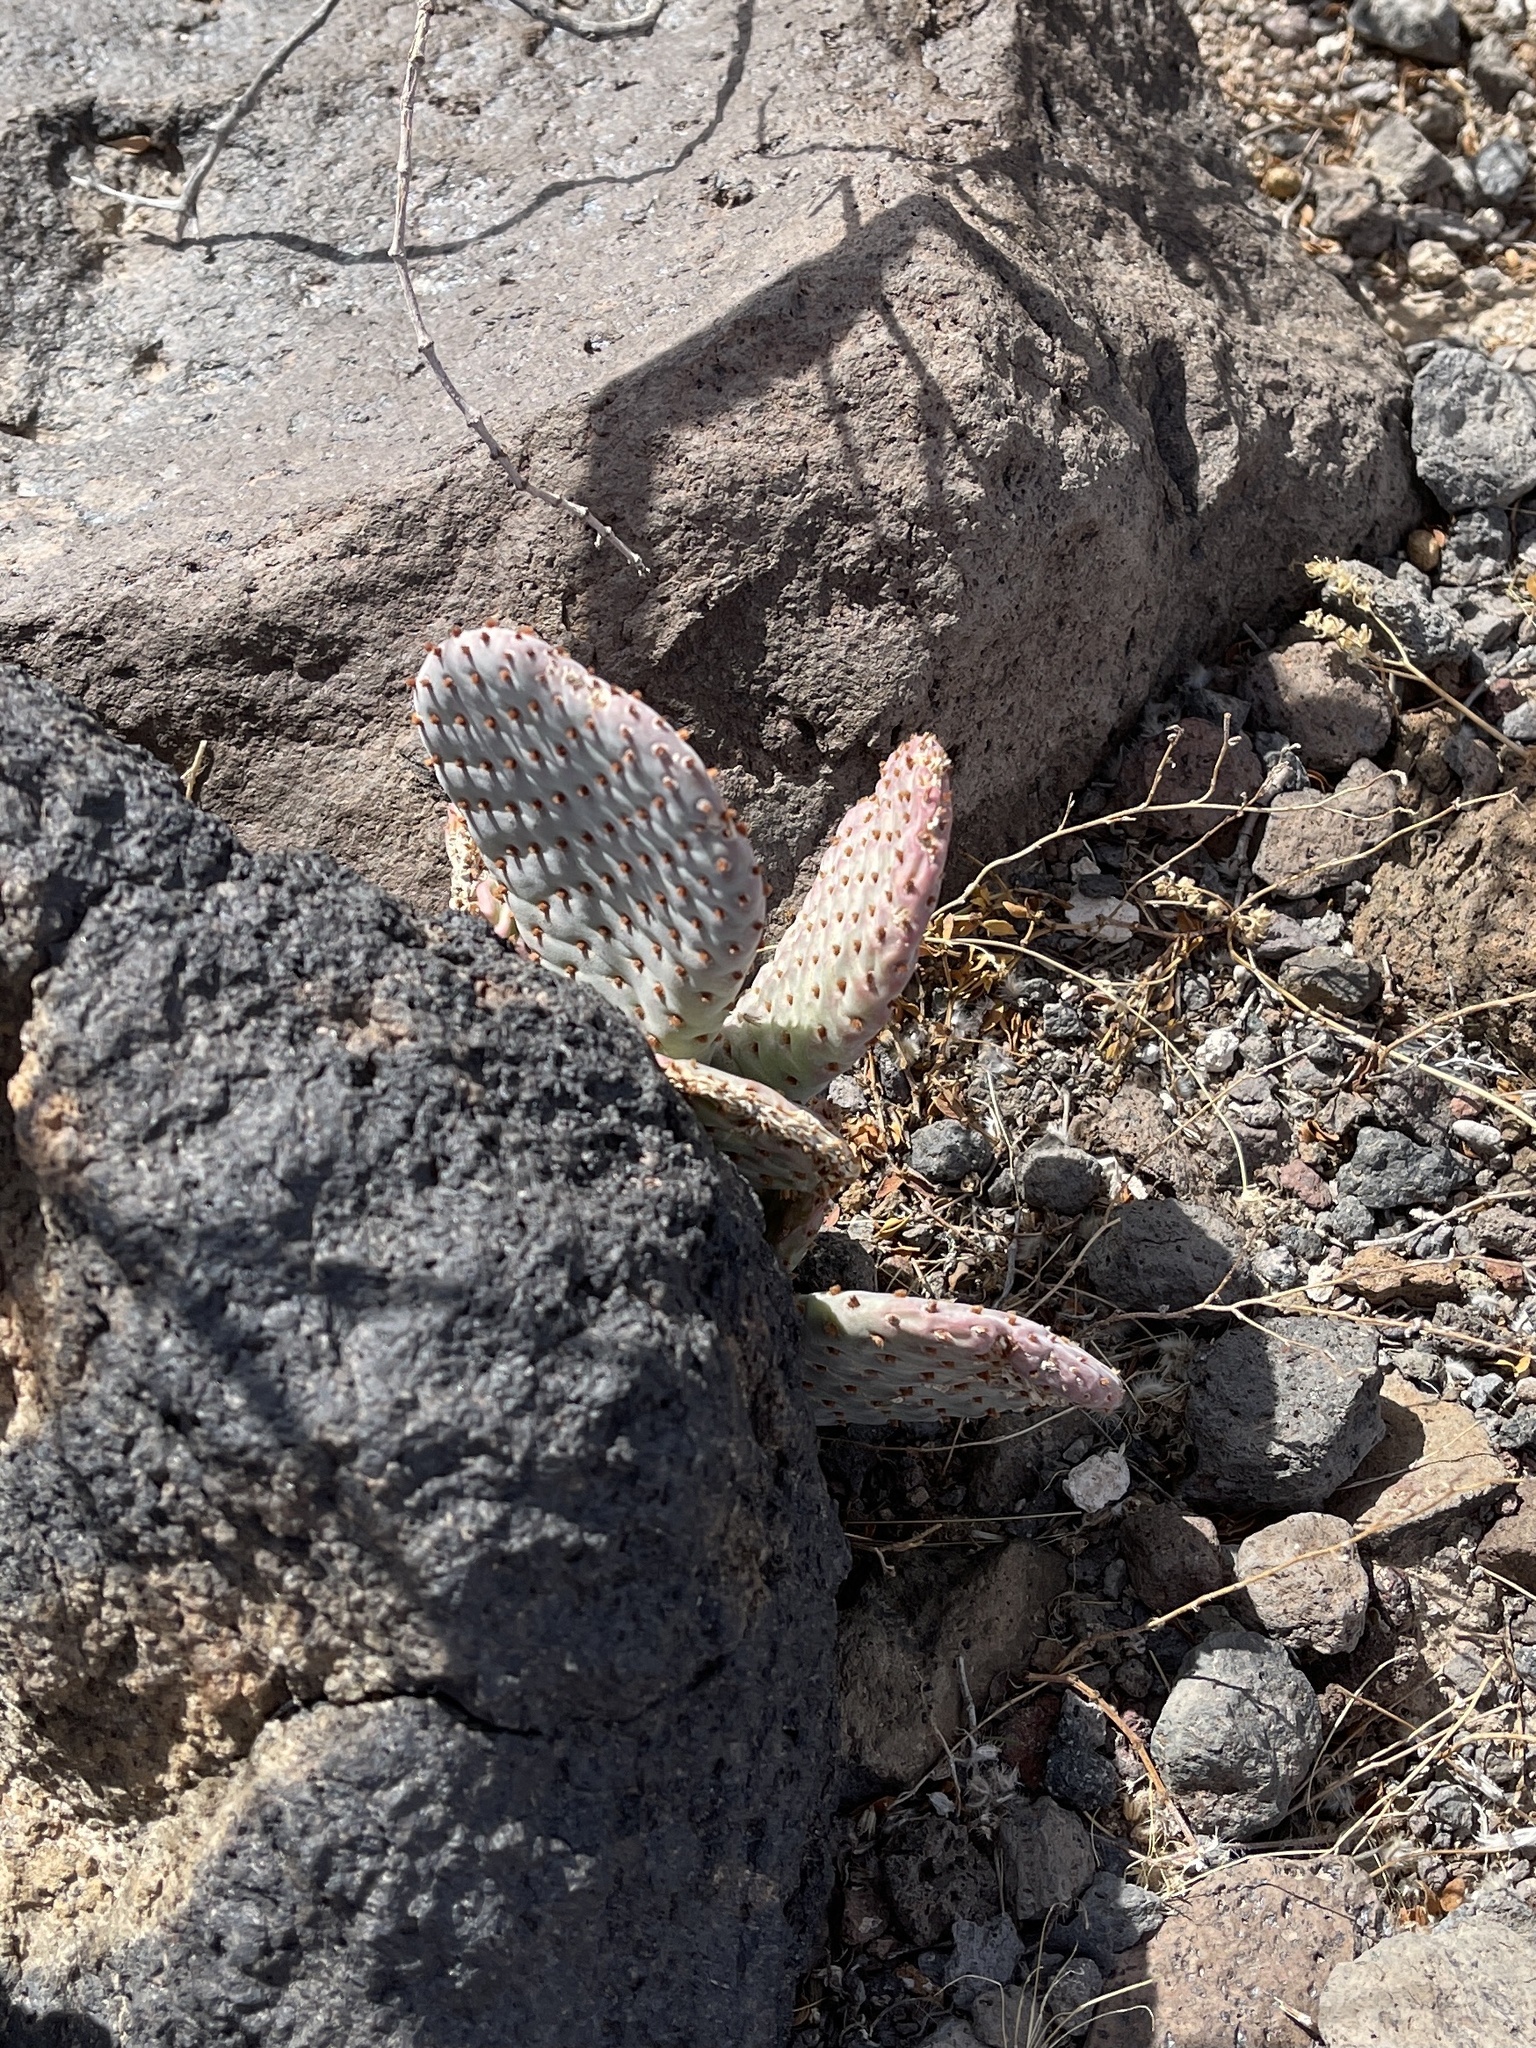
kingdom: Plantae
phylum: Tracheophyta
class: Magnoliopsida
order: Caryophyllales
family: Cactaceae
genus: Opuntia
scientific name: Opuntia basilaris
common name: Beavertail prickly-pear
